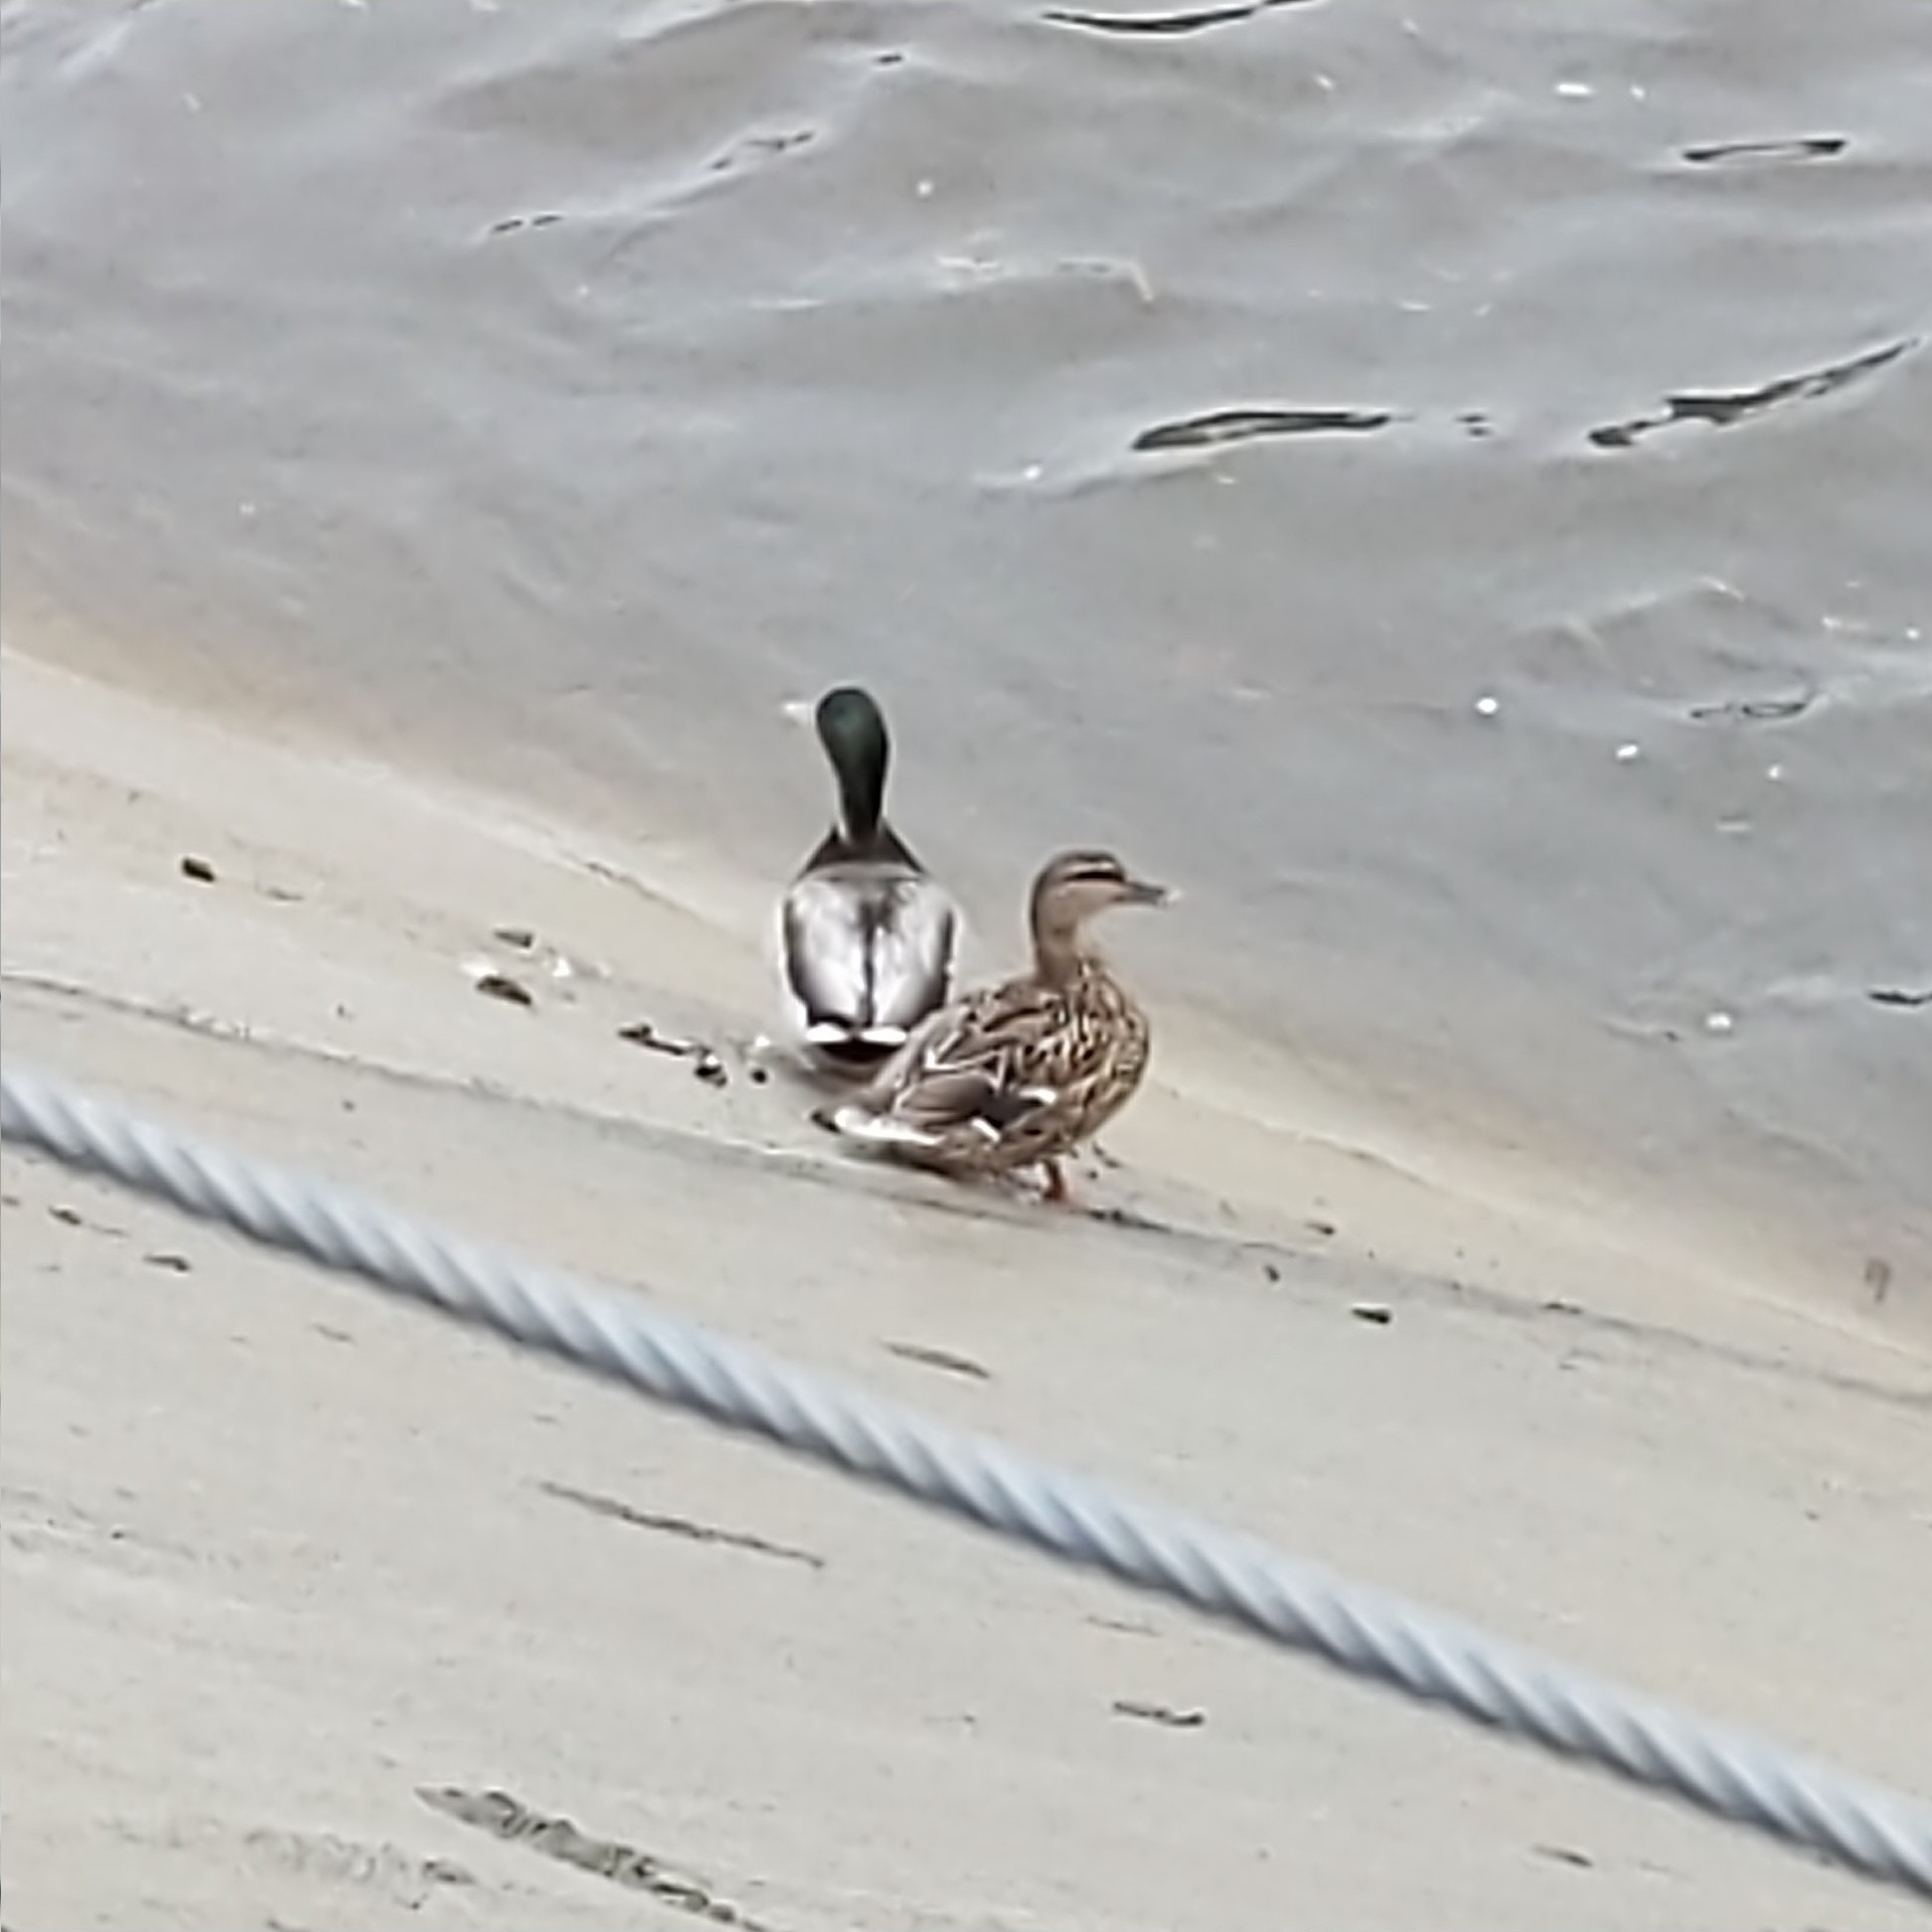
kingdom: Animalia
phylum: Chordata
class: Aves
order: Anseriformes
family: Anatidae
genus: Anas
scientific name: Anas platyrhynchos
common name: Mallard
